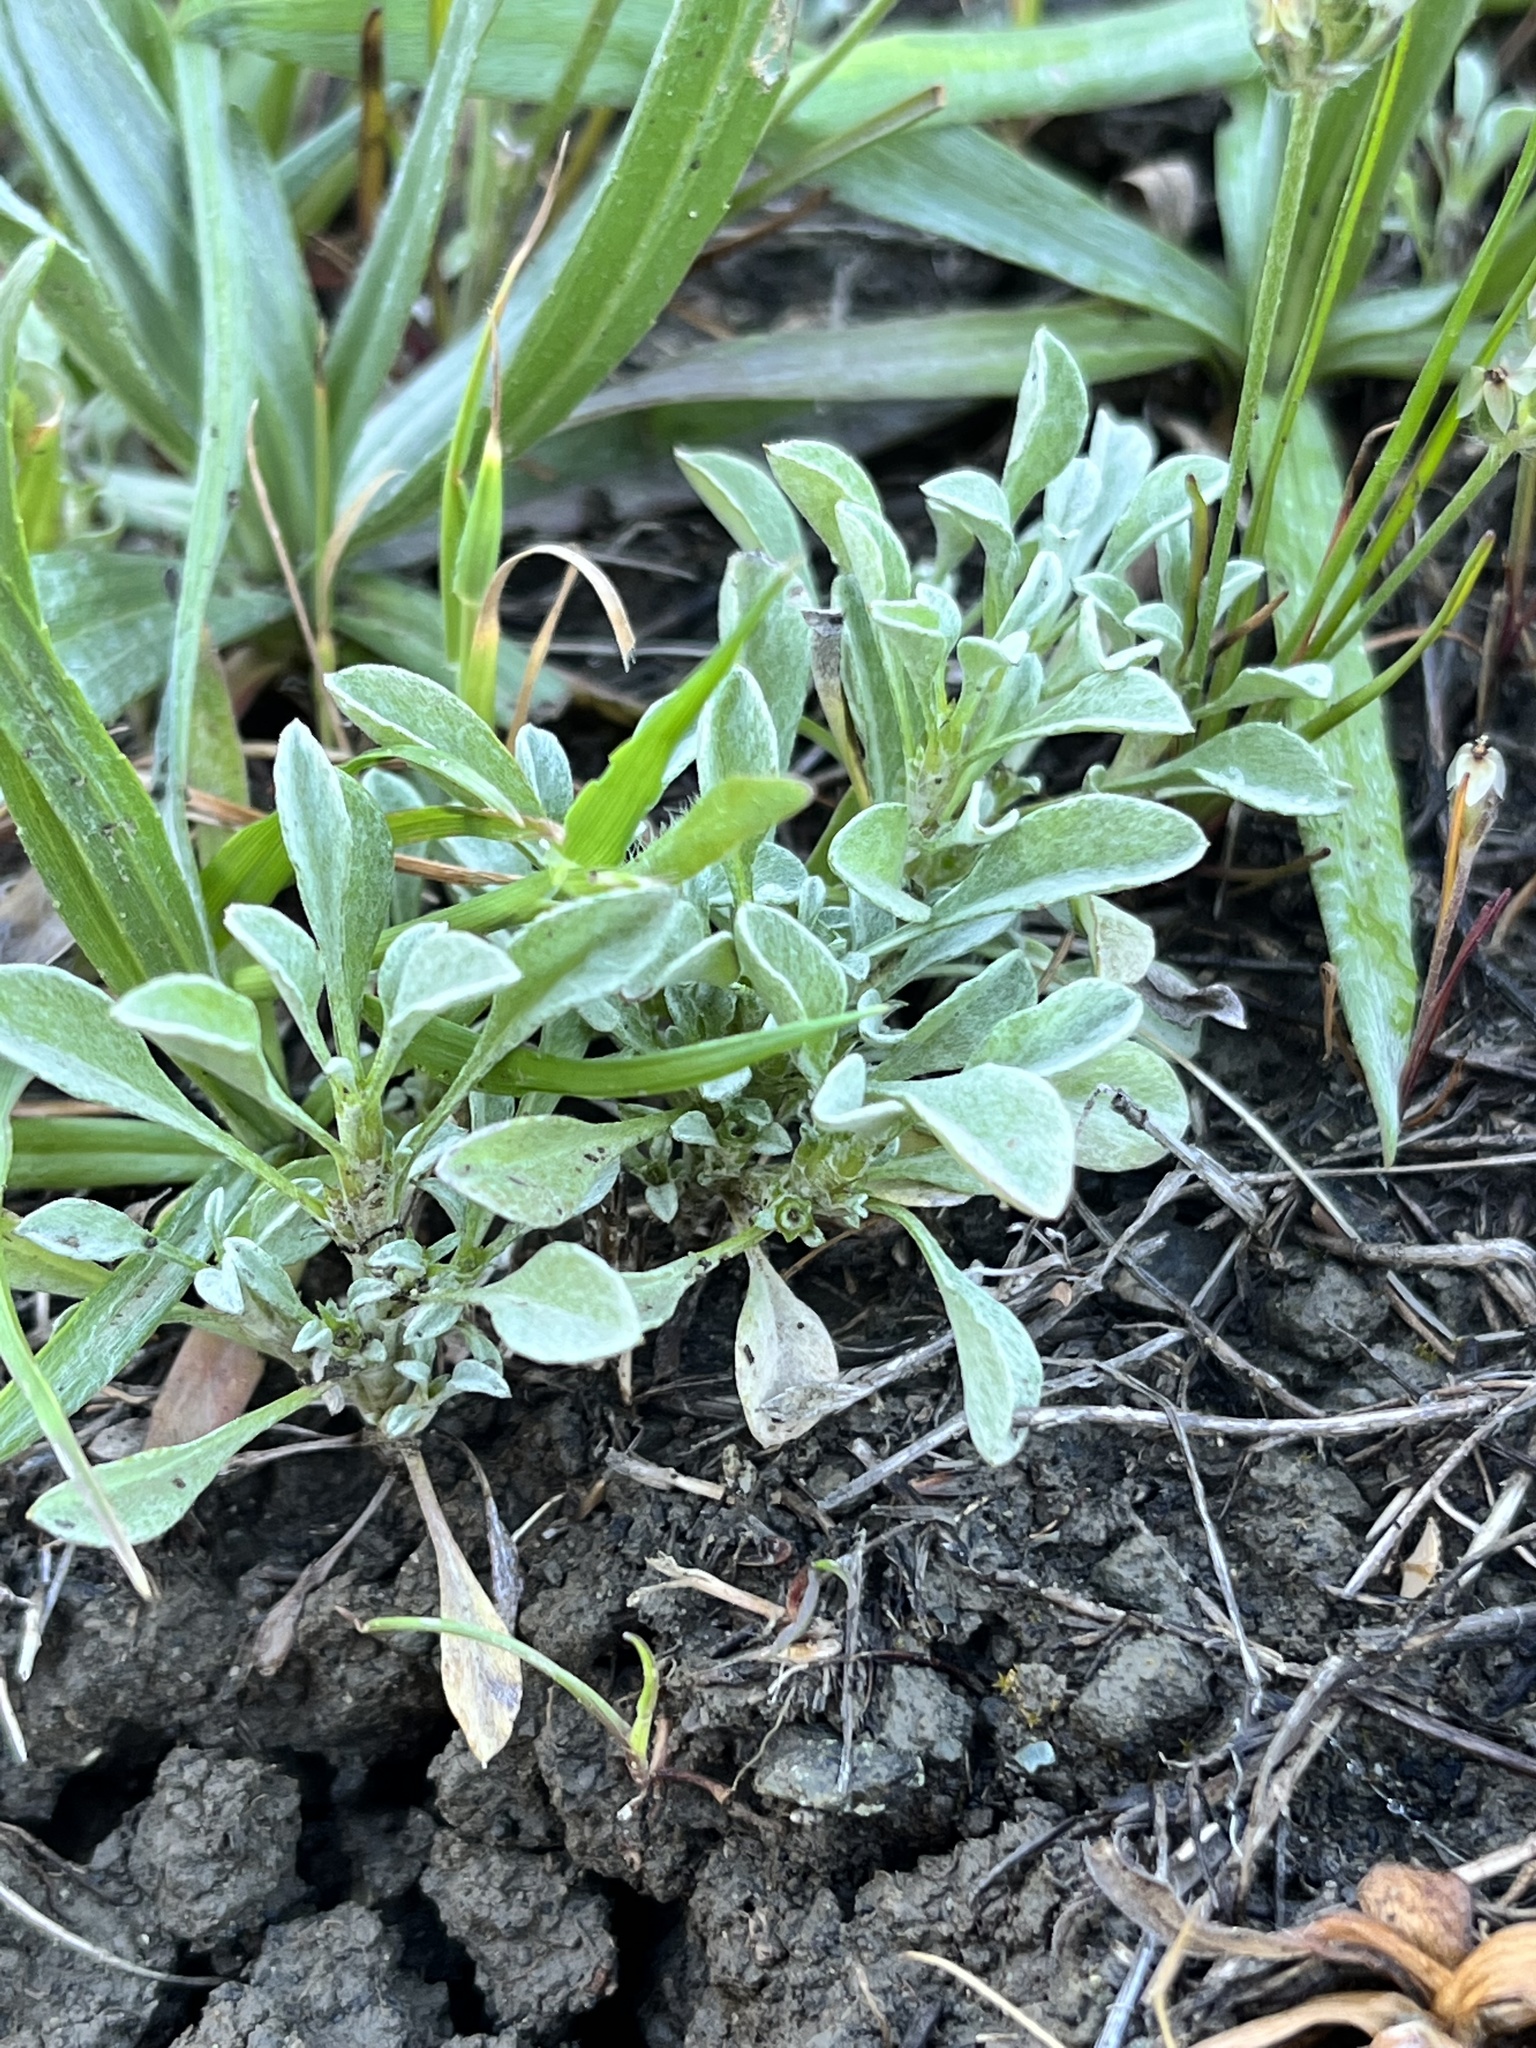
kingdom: Plantae
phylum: Tracheophyta
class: Magnoliopsida
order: Asterales
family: Asteraceae
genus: Hesperevax
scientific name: Hesperevax sparsiflora
